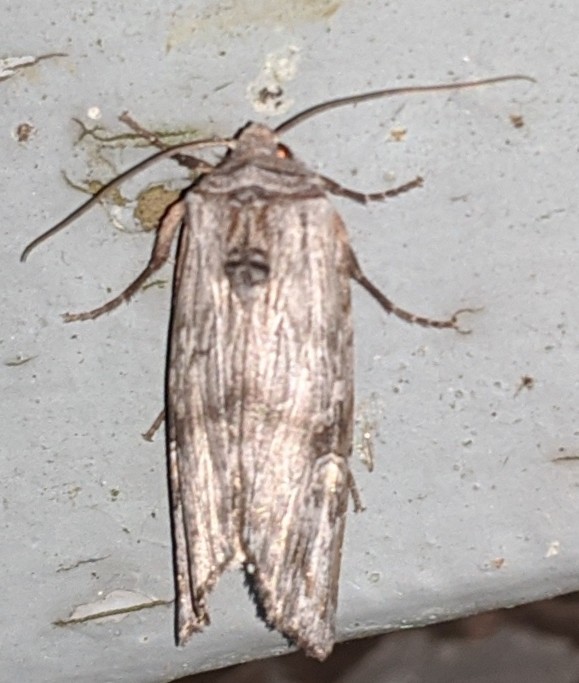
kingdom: Animalia
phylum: Arthropoda
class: Insecta
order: Lepidoptera
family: Noctuidae
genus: Xylena
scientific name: Xylena germana
